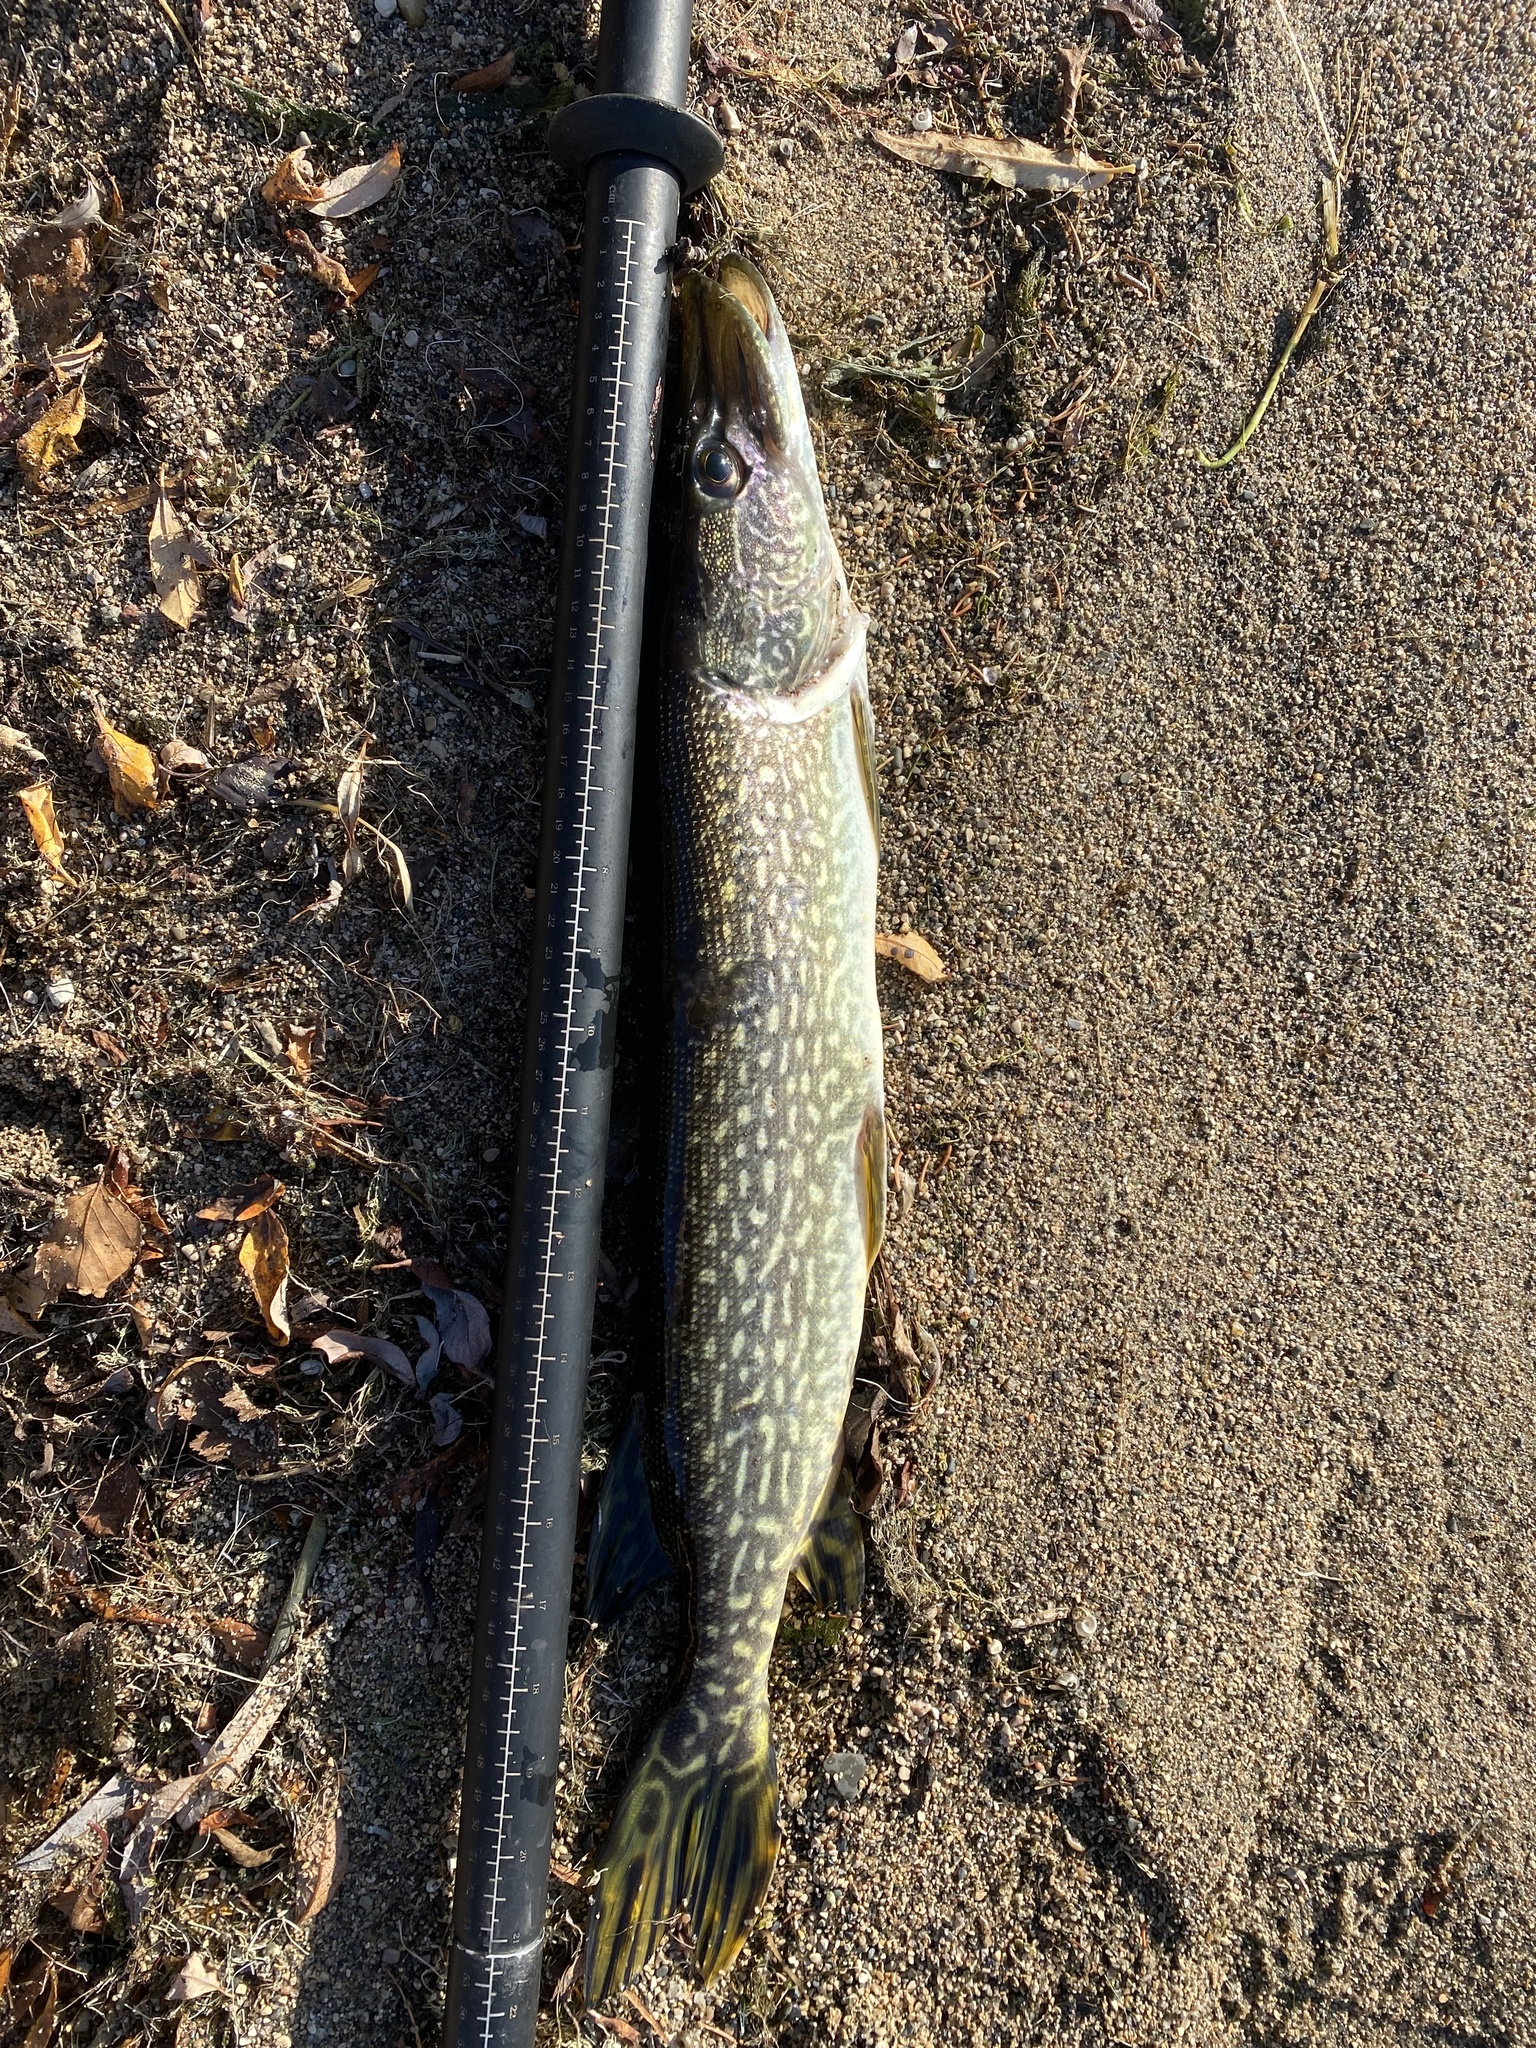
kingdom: Animalia
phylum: Chordata
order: Esociformes
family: Esocidae
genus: Esox
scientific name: Esox lucius
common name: Northern pike
